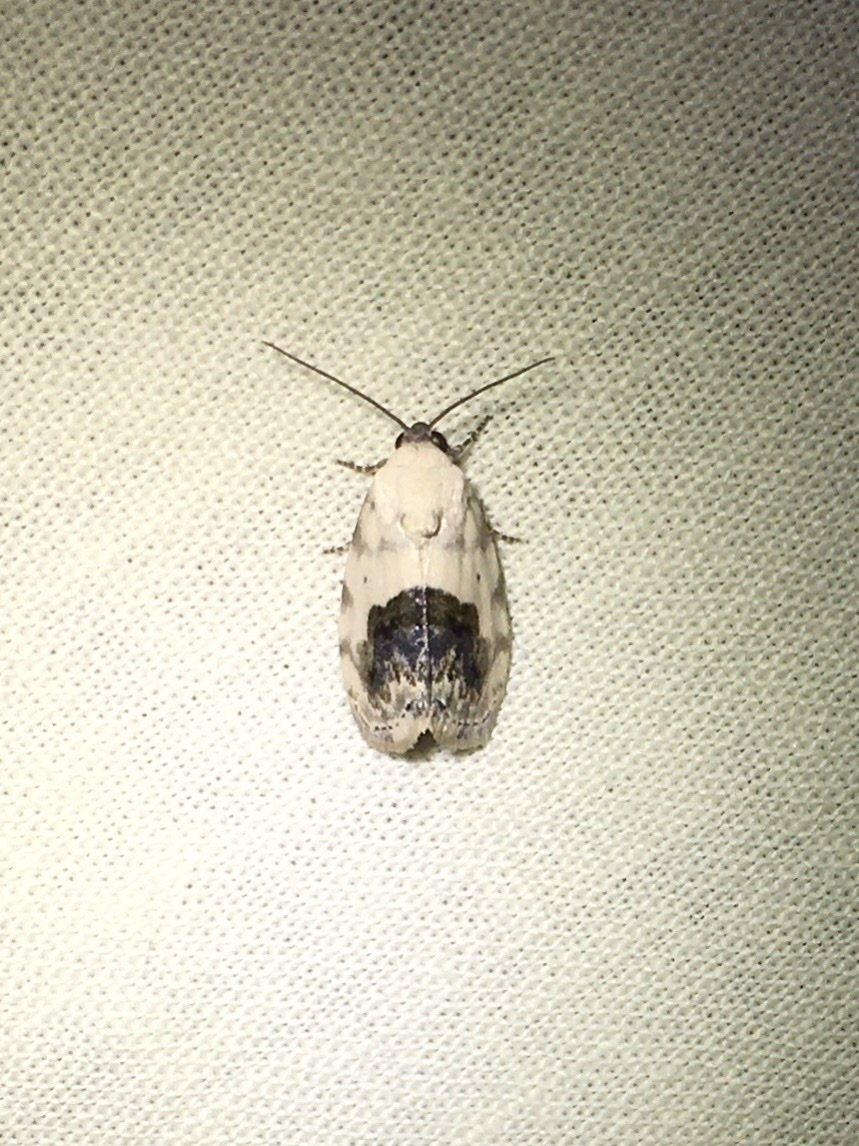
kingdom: Animalia
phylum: Arthropoda
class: Insecta
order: Lepidoptera
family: Noctuidae
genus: Acontia
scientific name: Acontia erastrioides
